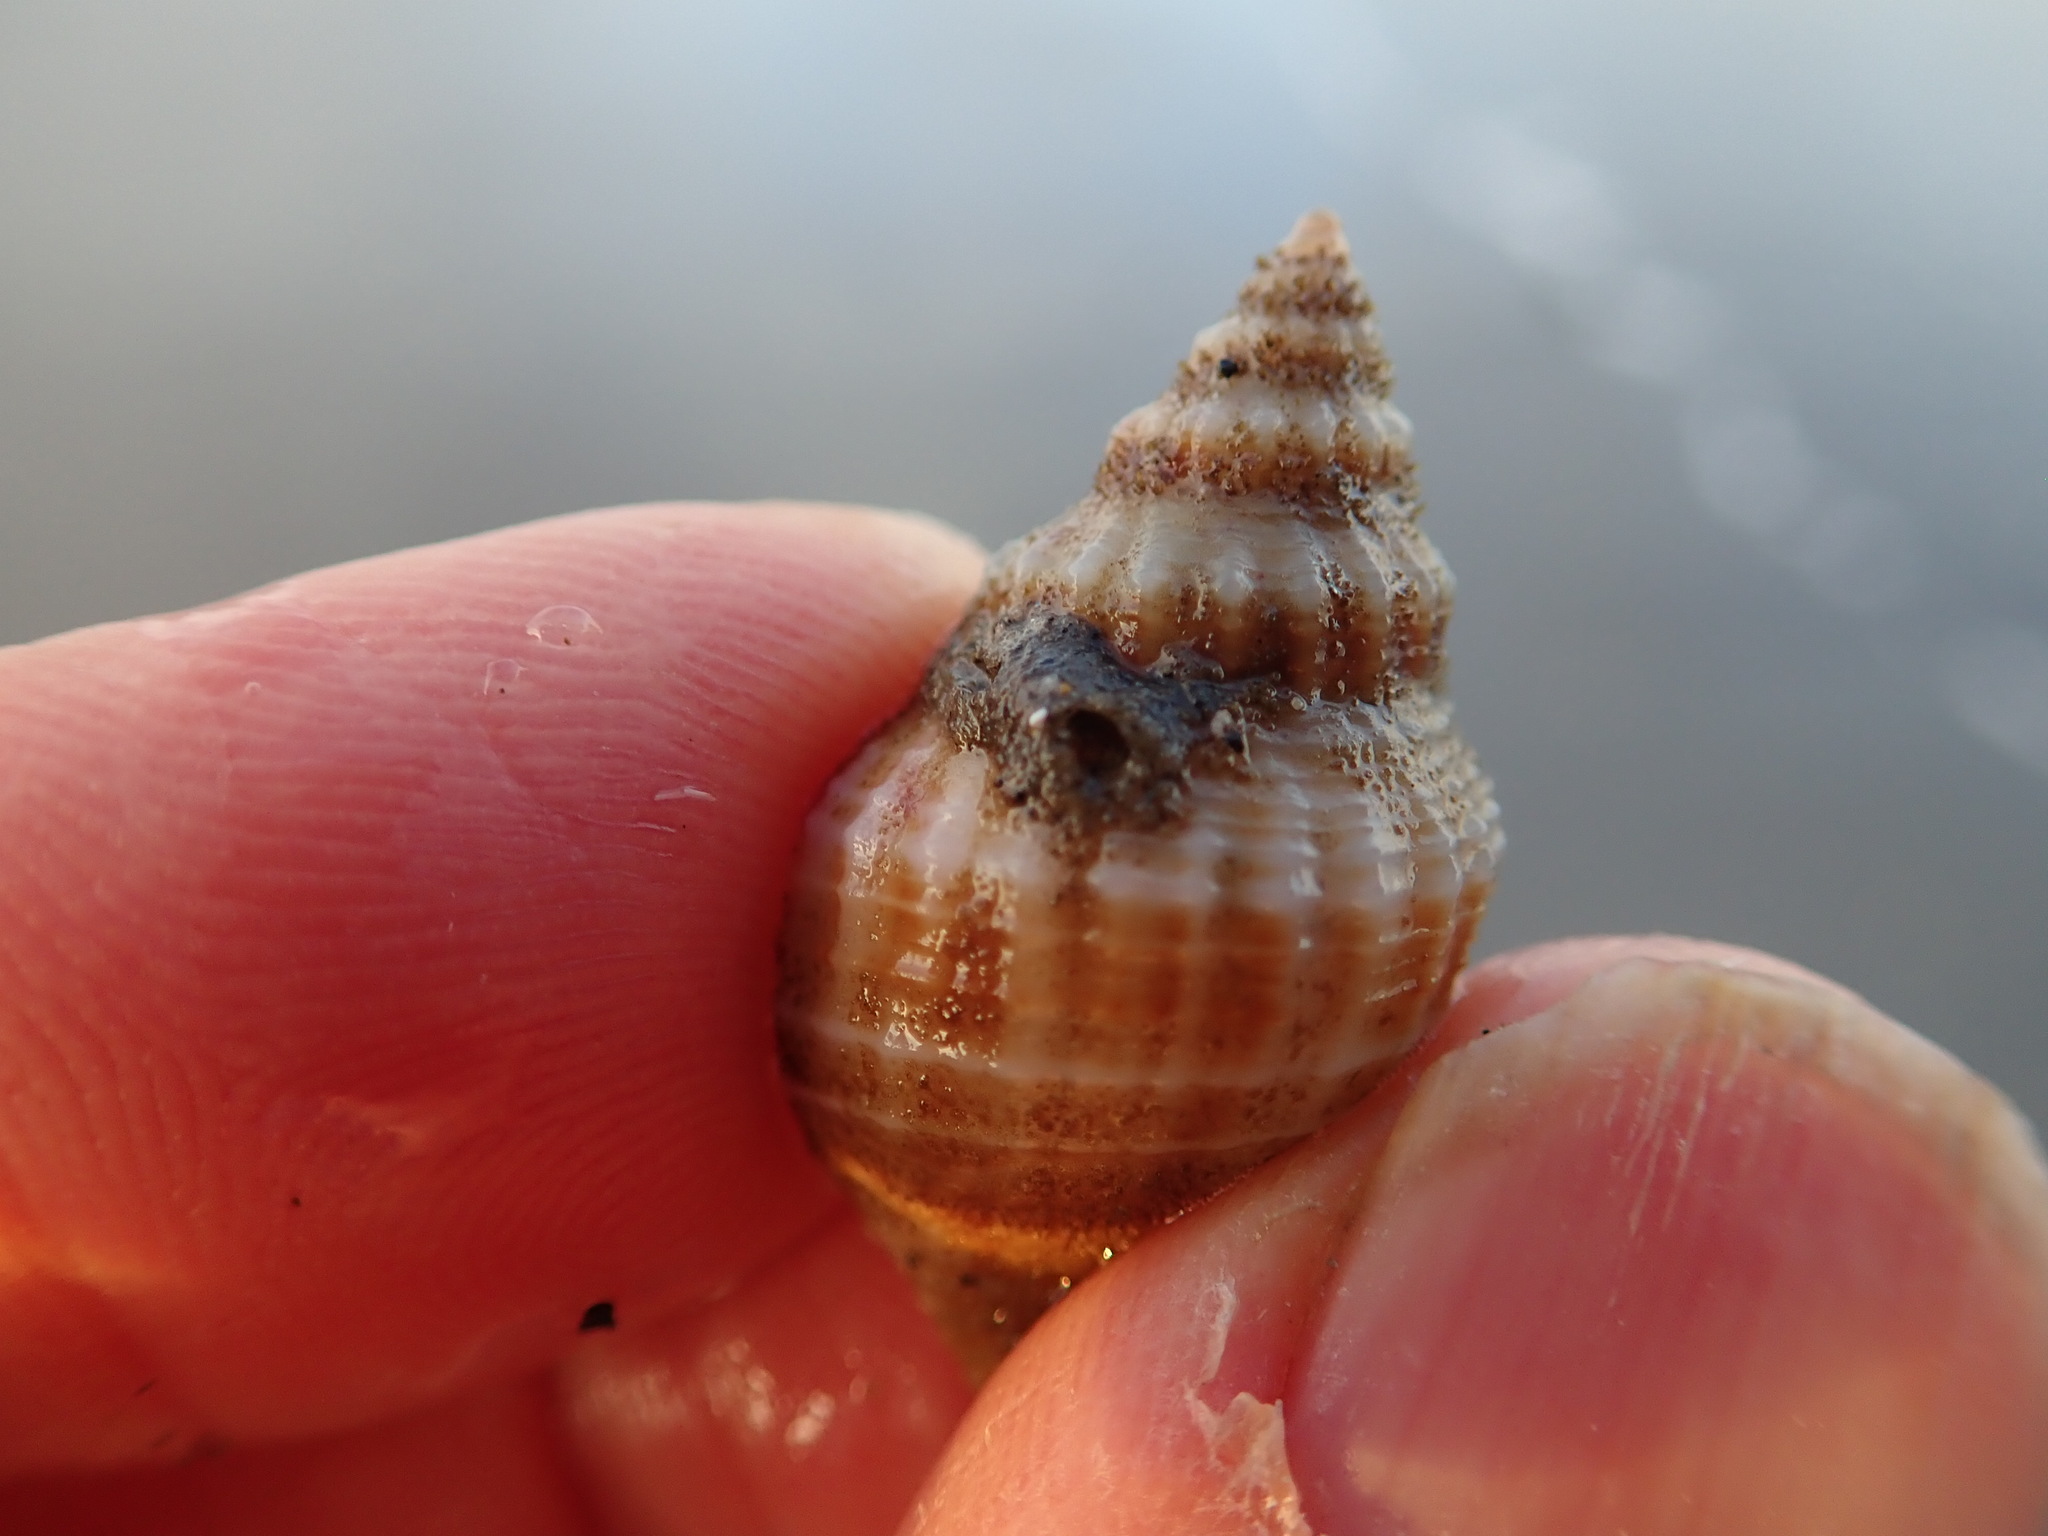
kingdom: Animalia
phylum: Mollusca
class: Gastropoda
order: Neogastropoda
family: Prosiphonidae
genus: Austrofusus
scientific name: Austrofusus glans
